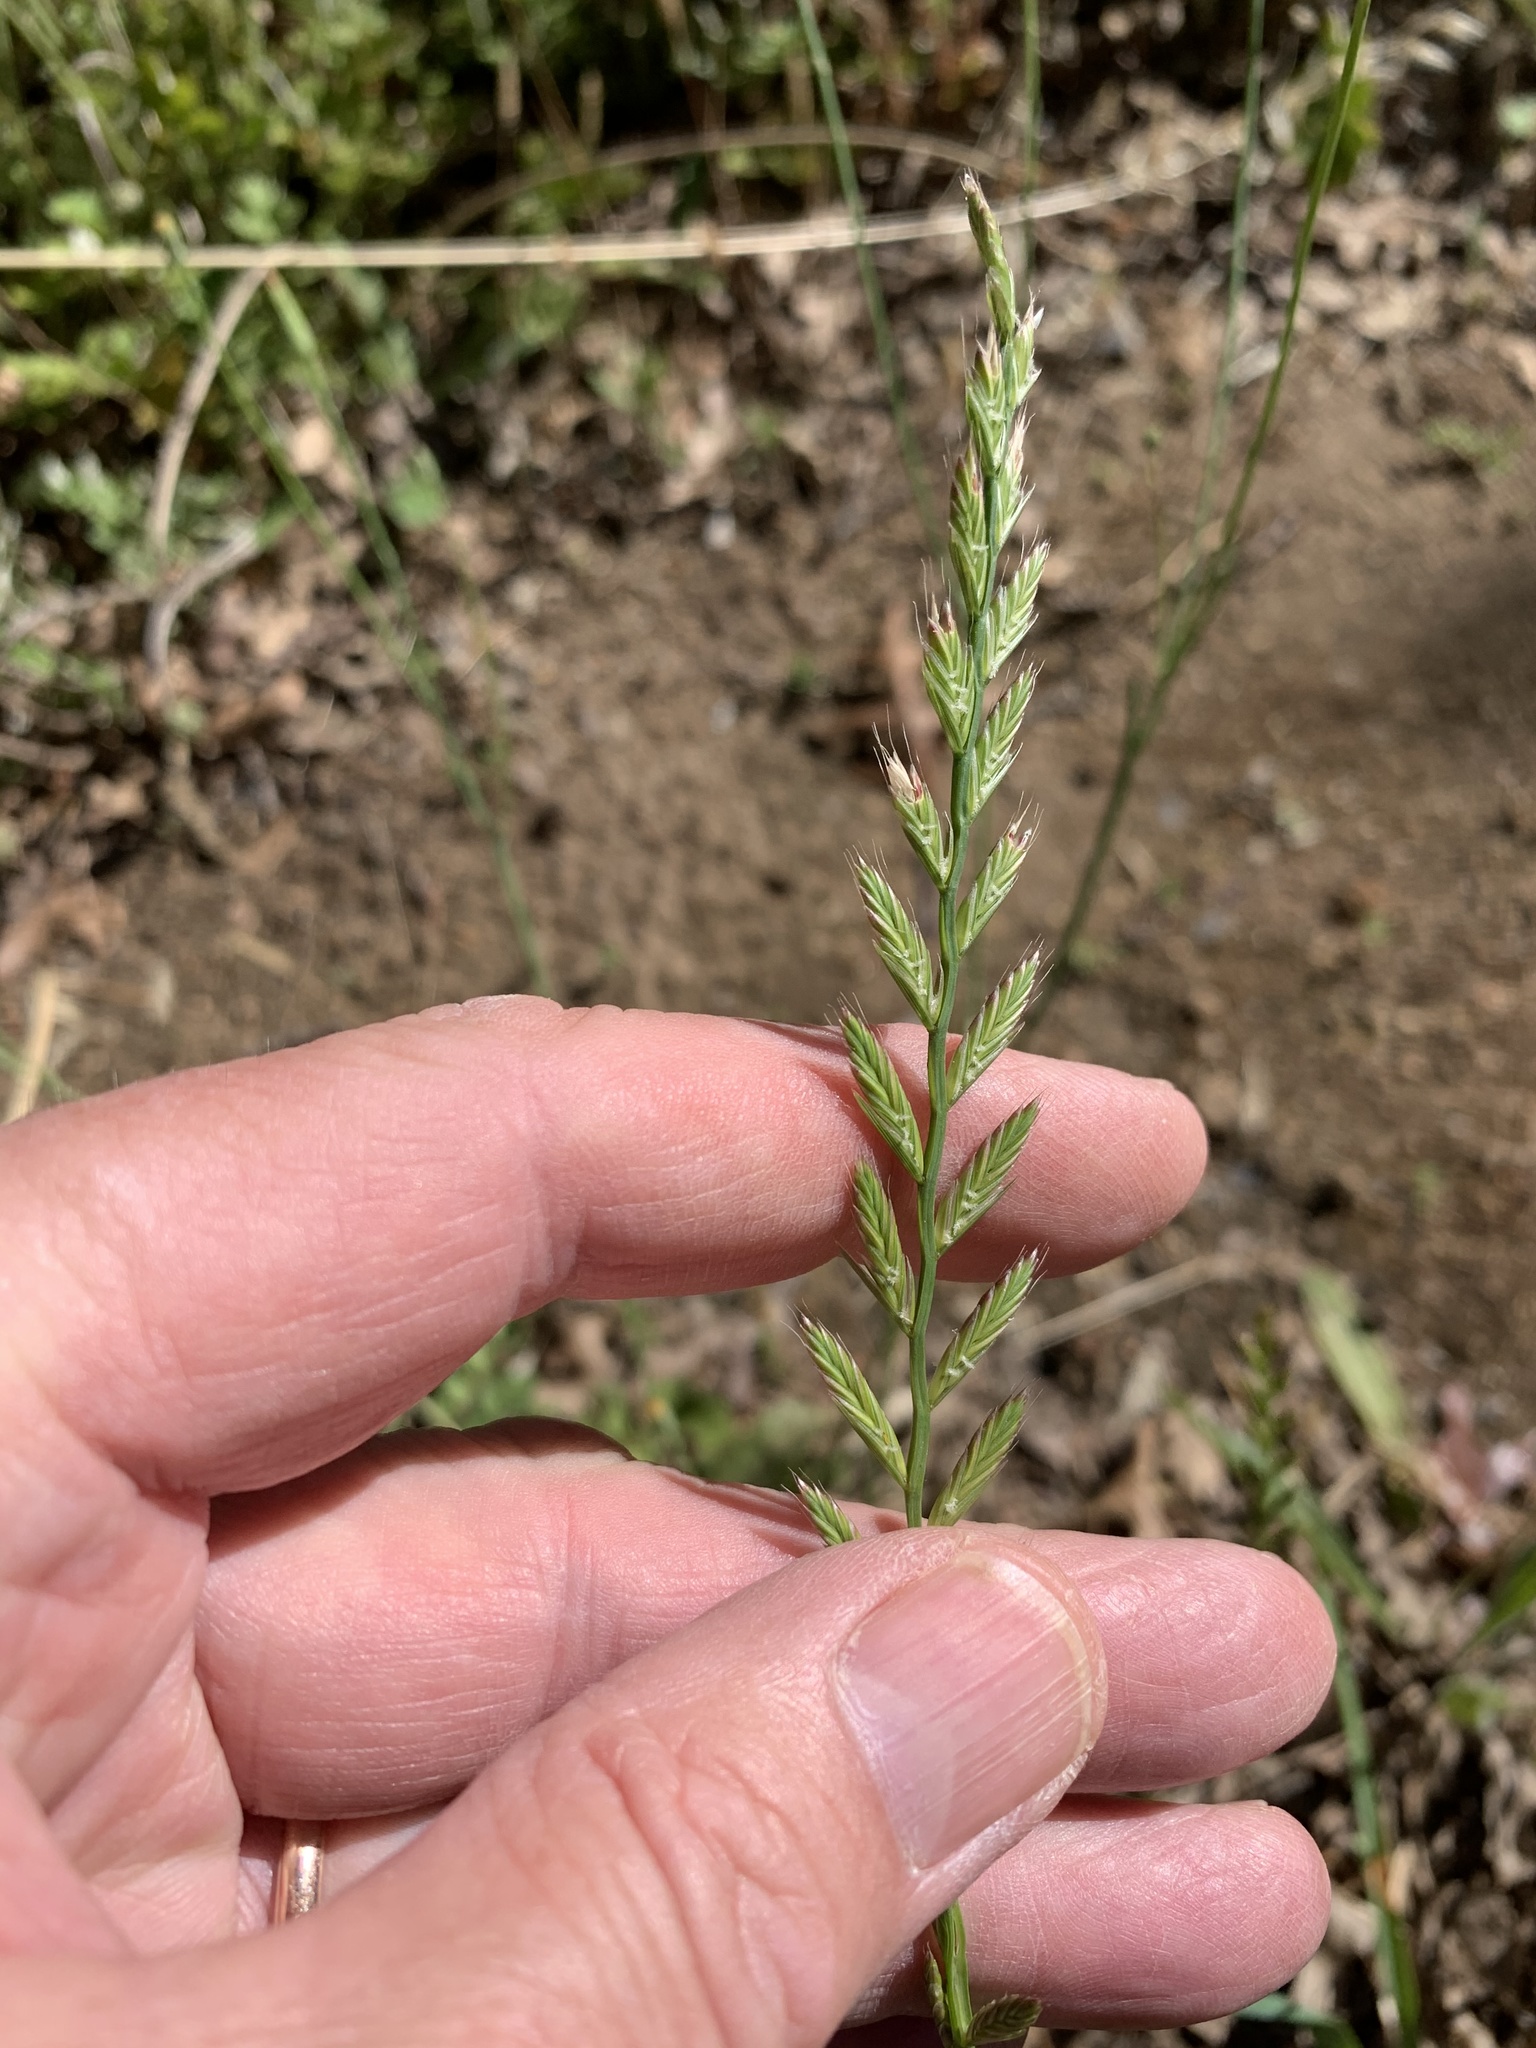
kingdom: Plantae
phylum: Tracheophyta
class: Liliopsida
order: Poales
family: Poaceae
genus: Lolium
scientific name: Lolium multiflorum
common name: Annual ryegrass
